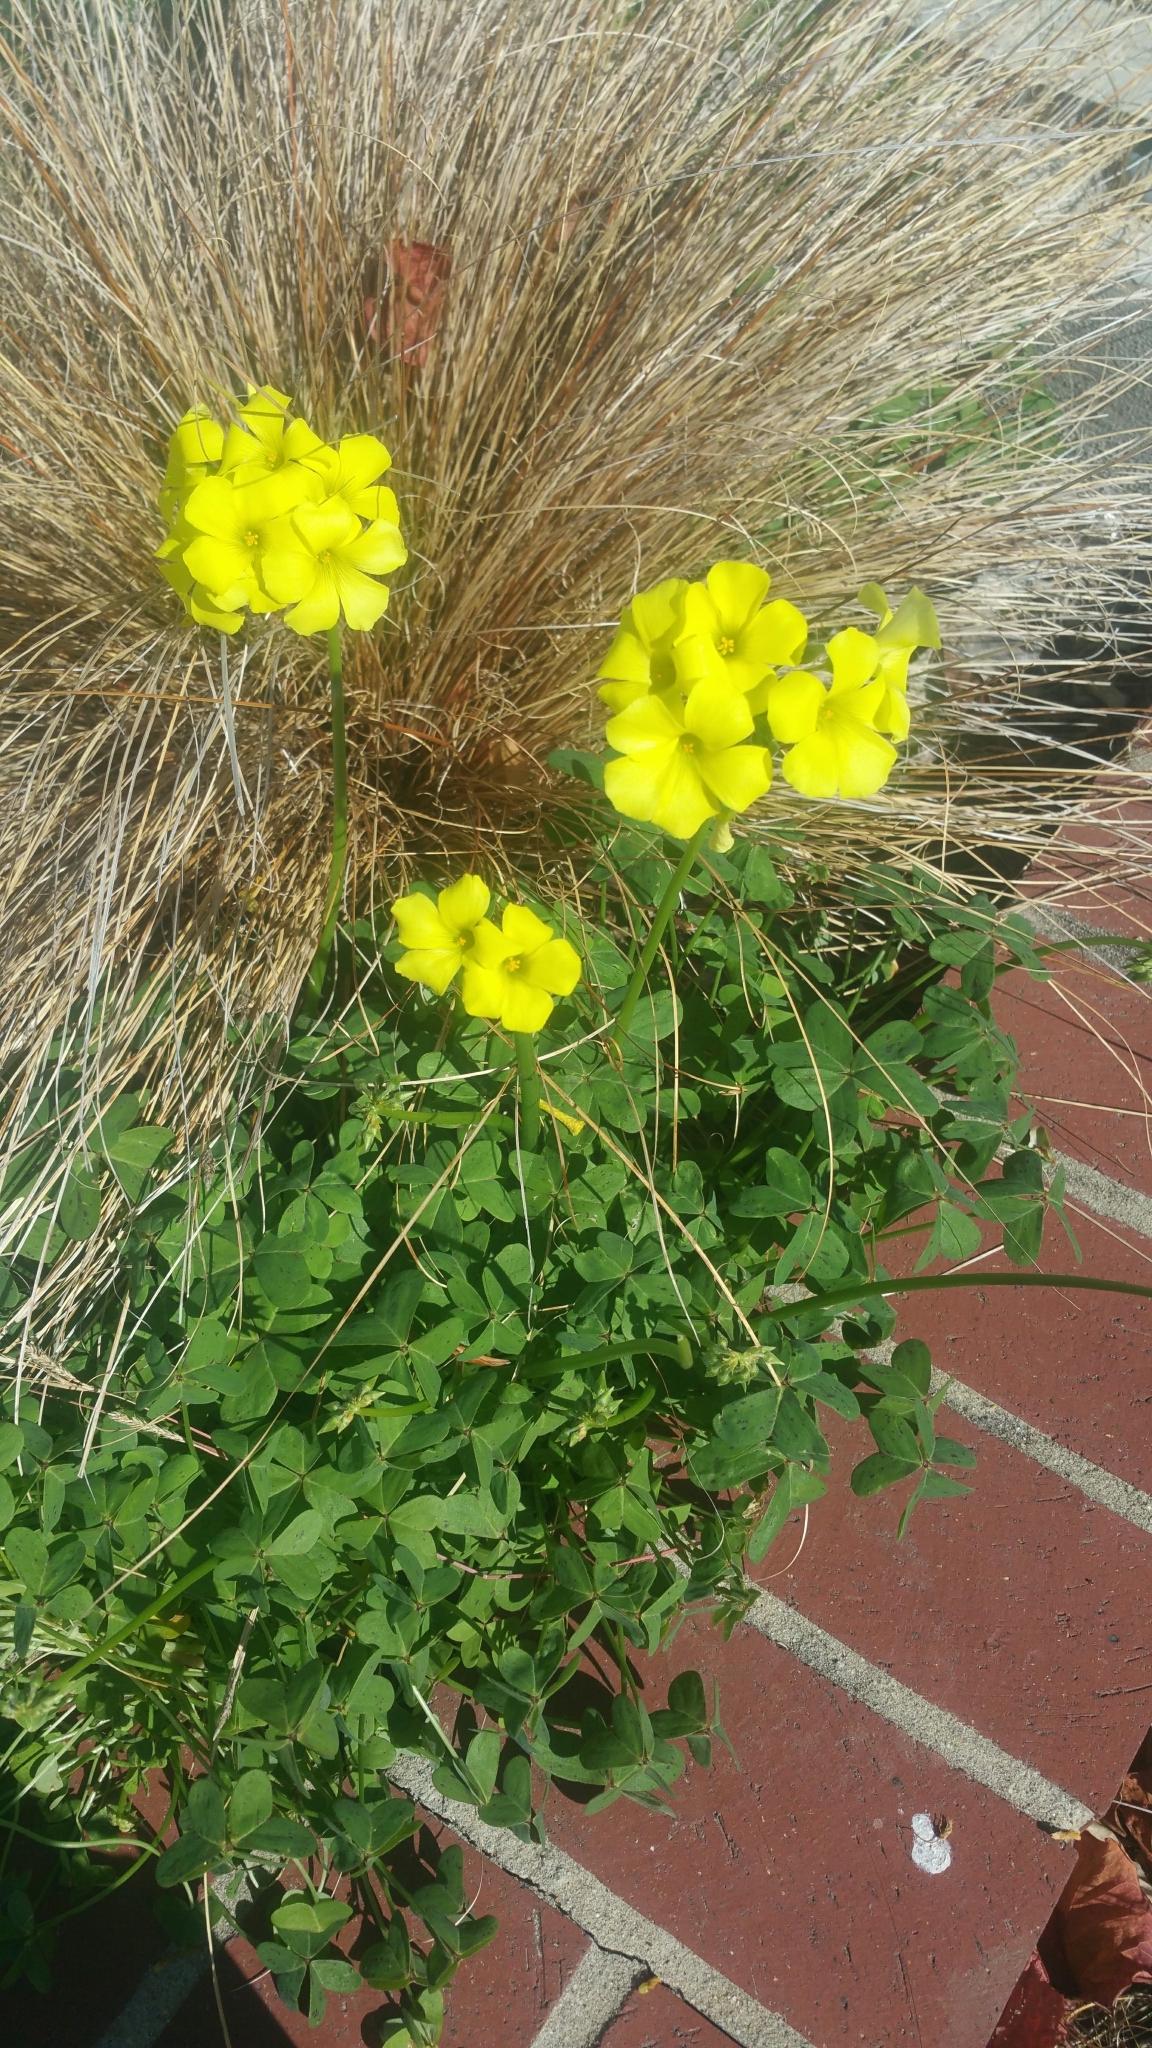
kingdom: Plantae
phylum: Tracheophyta
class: Magnoliopsida
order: Oxalidales
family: Oxalidaceae
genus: Oxalis
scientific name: Oxalis pes-caprae
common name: Bermuda-buttercup
